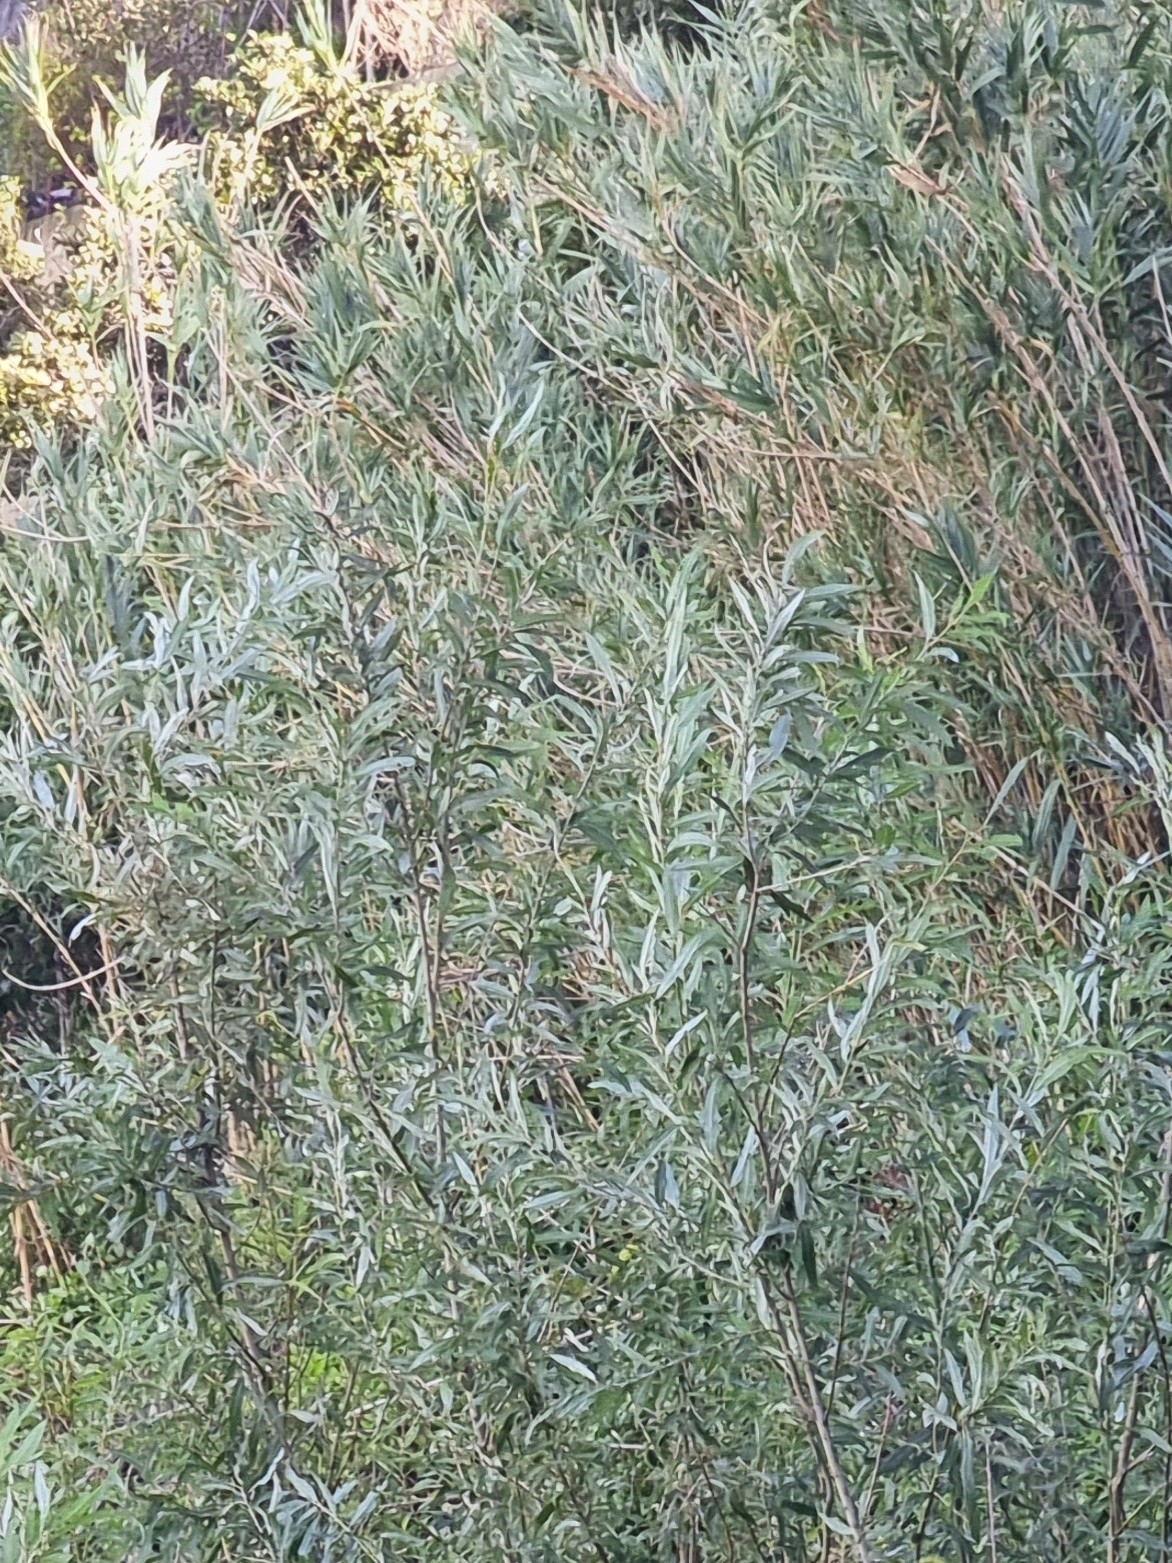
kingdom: Plantae
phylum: Tracheophyta
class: Magnoliopsida
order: Malpighiales
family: Salicaceae
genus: Salix
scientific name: Salix canariensis
